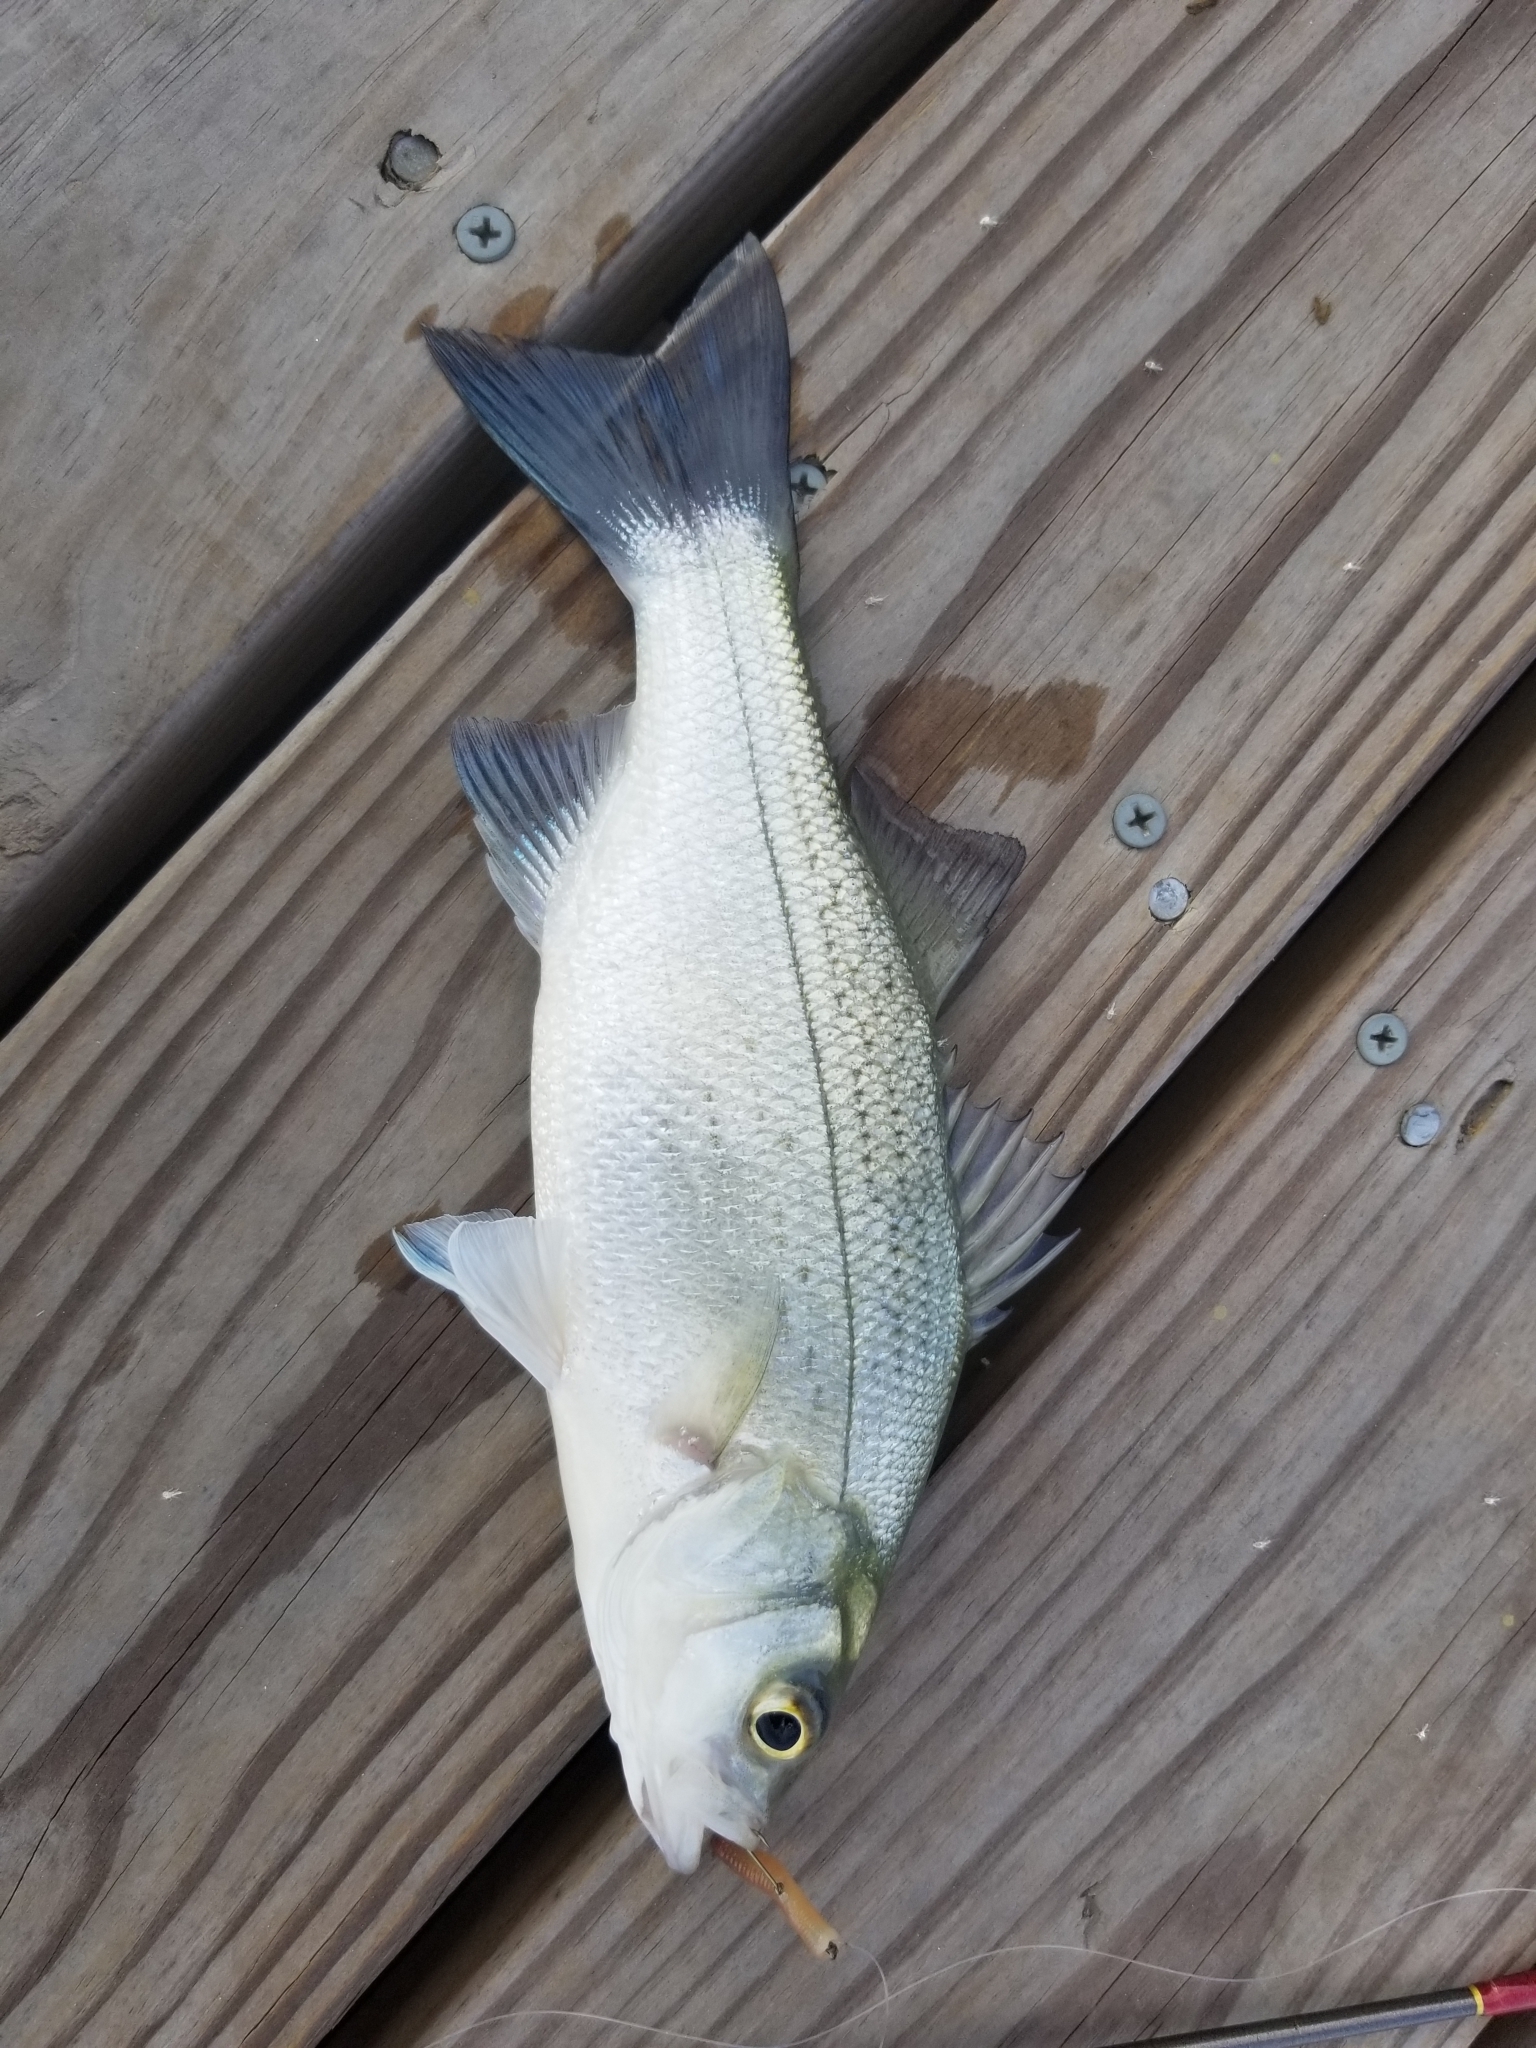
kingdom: Animalia
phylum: Chordata
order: Perciformes
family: Moronidae
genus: Morone
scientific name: Morone chrysops
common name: White bass
